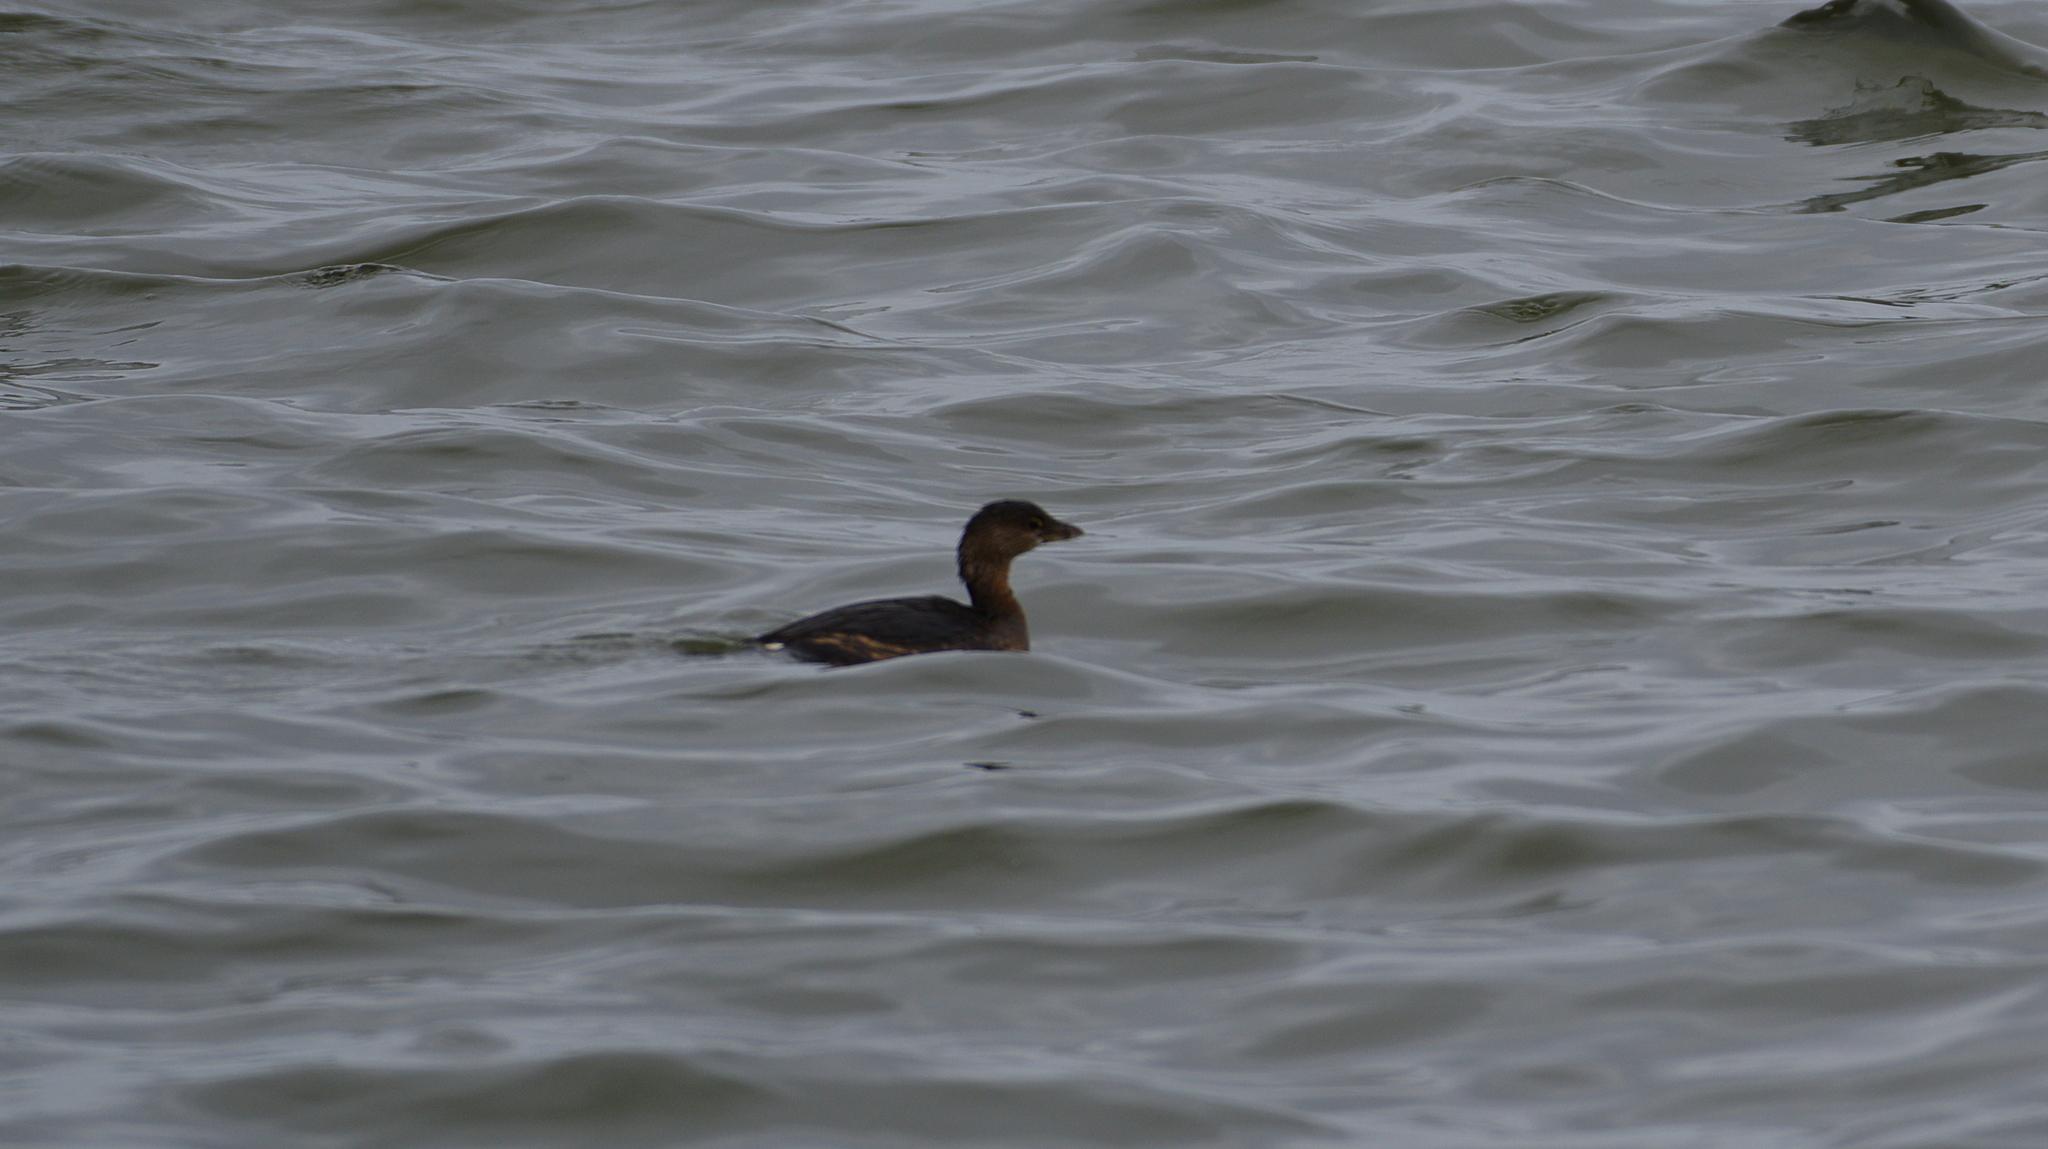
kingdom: Animalia
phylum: Chordata
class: Aves
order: Podicipediformes
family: Podicipedidae
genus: Podilymbus
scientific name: Podilymbus podiceps
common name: Pied-billed grebe
